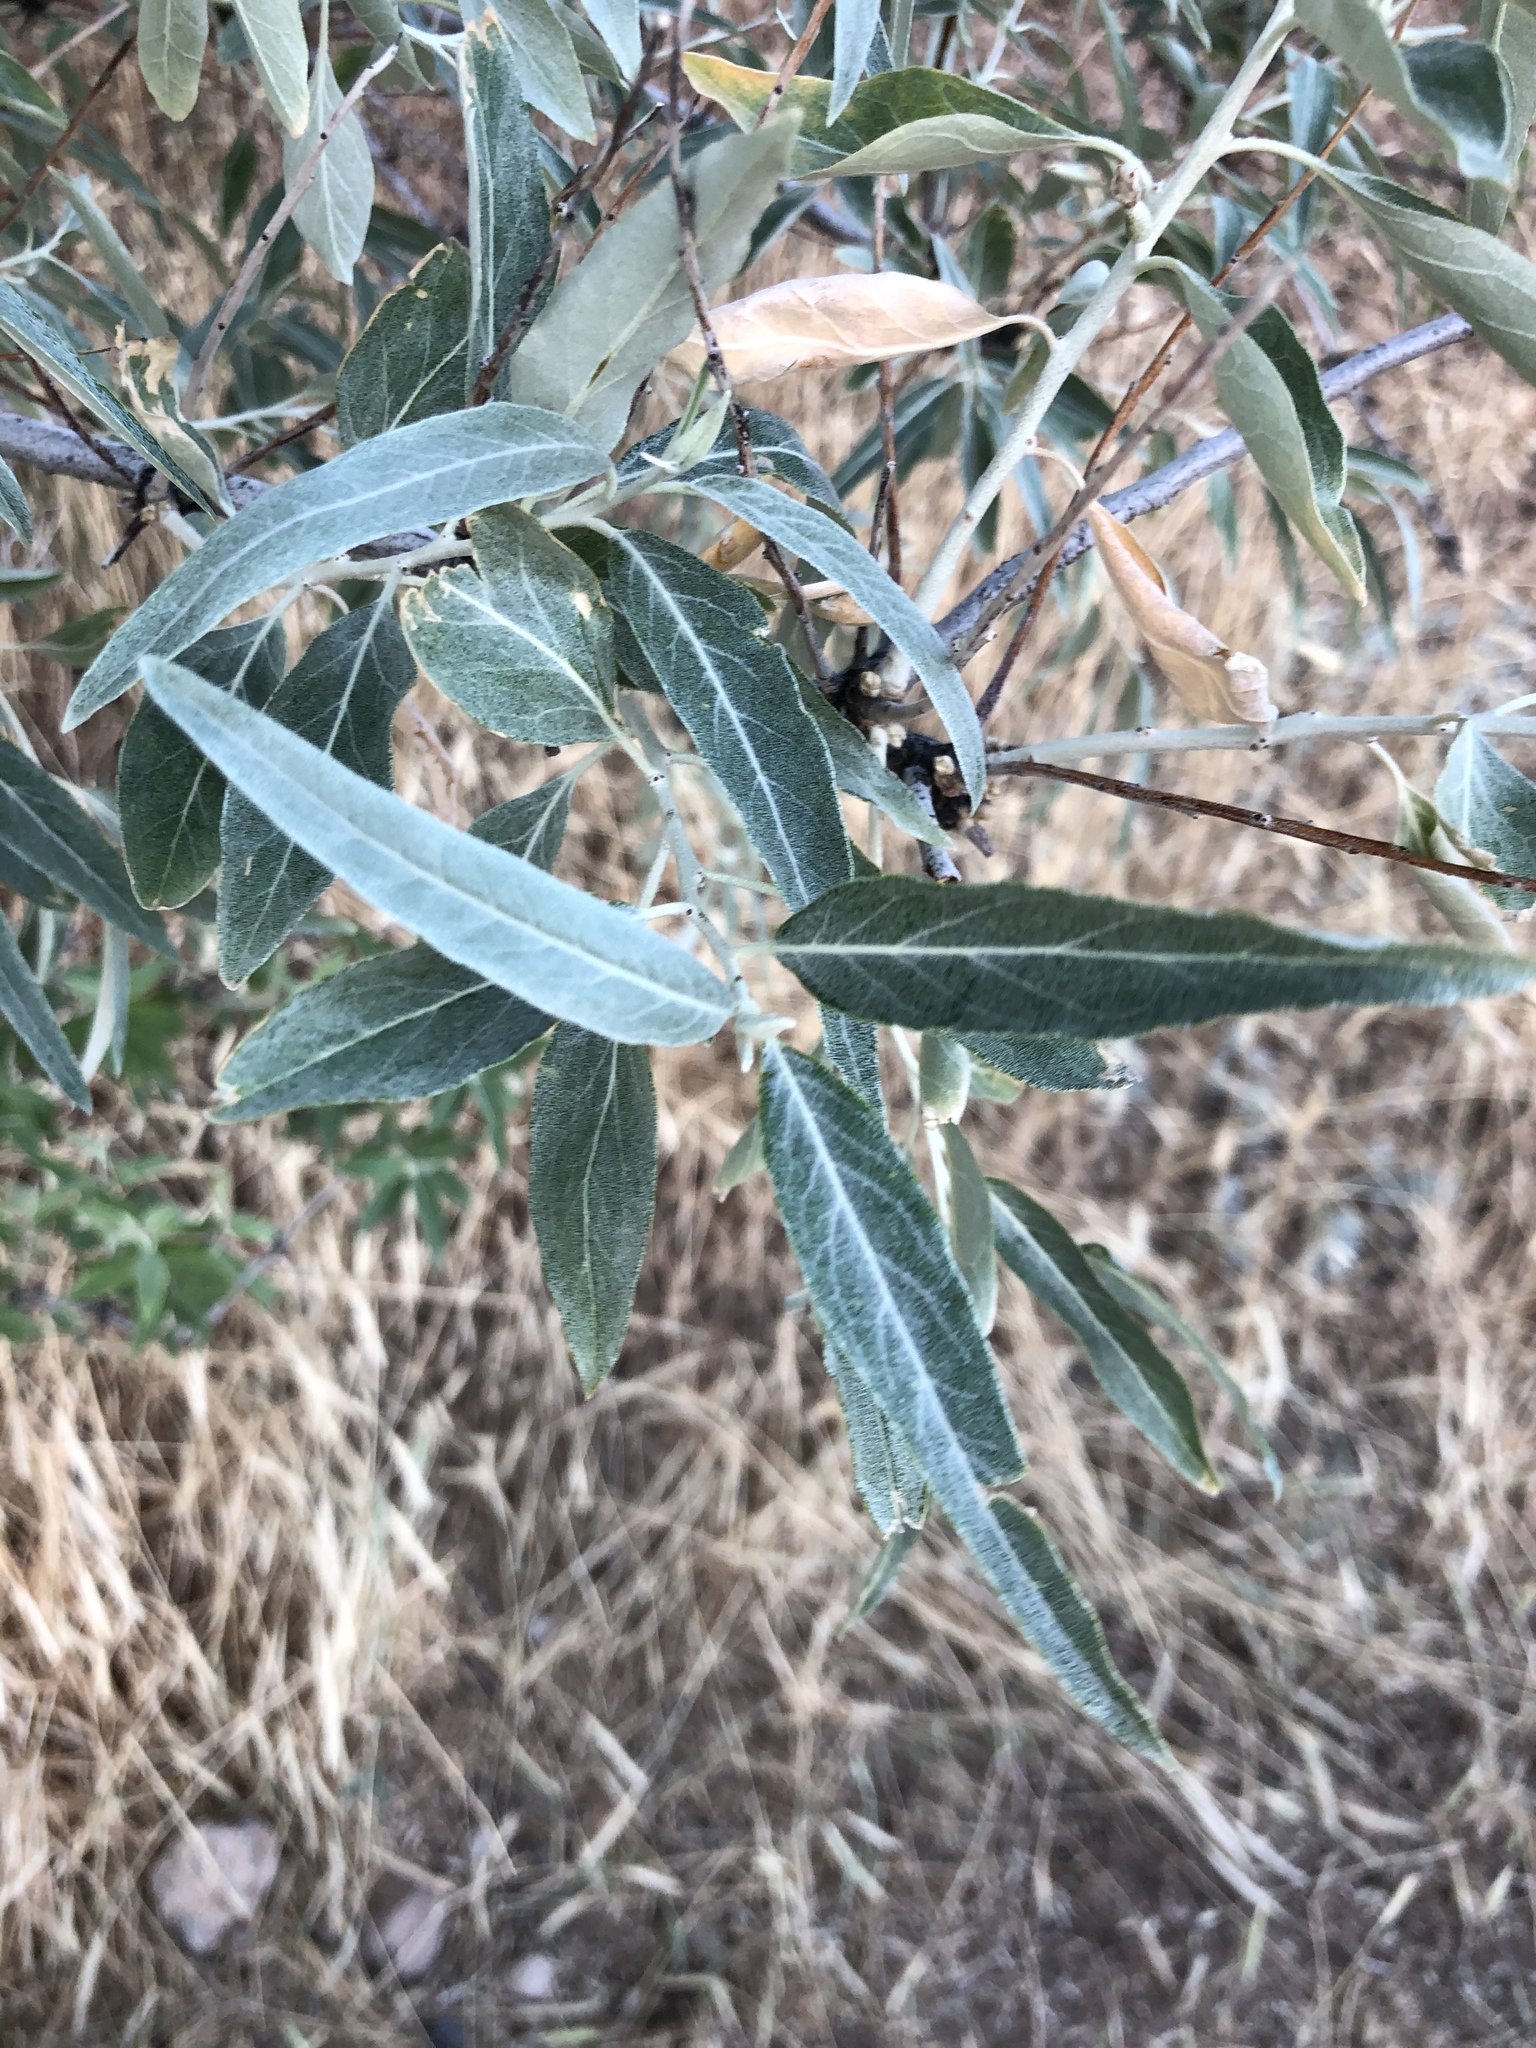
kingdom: Plantae
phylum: Tracheophyta
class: Magnoliopsida
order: Rosales
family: Elaeagnaceae
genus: Elaeagnus
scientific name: Elaeagnus angustifolia
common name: Russian olive
